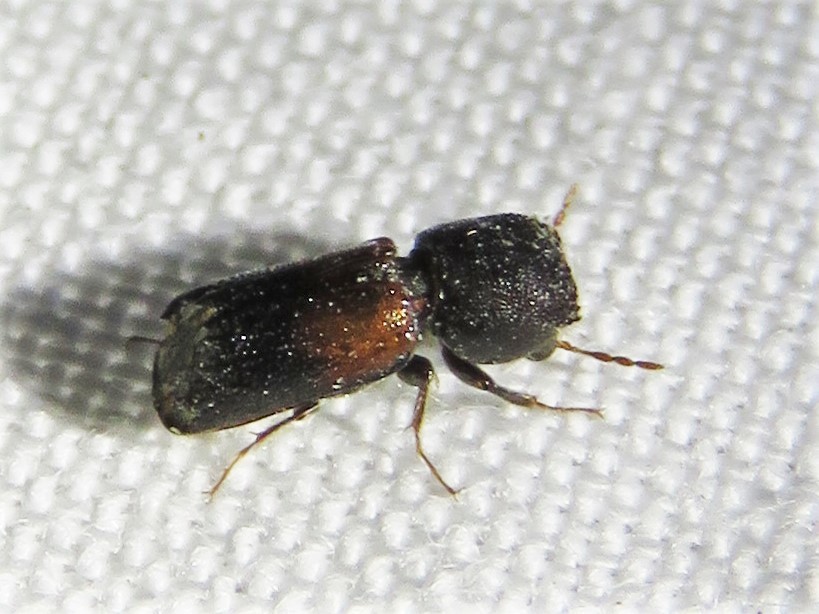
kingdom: Animalia
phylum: Arthropoda
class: Insecta
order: Coleoptera
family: Bostrichidae
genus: Xylobiops
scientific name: Xylobiops basilaris
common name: Red-shouldered bostrichid
